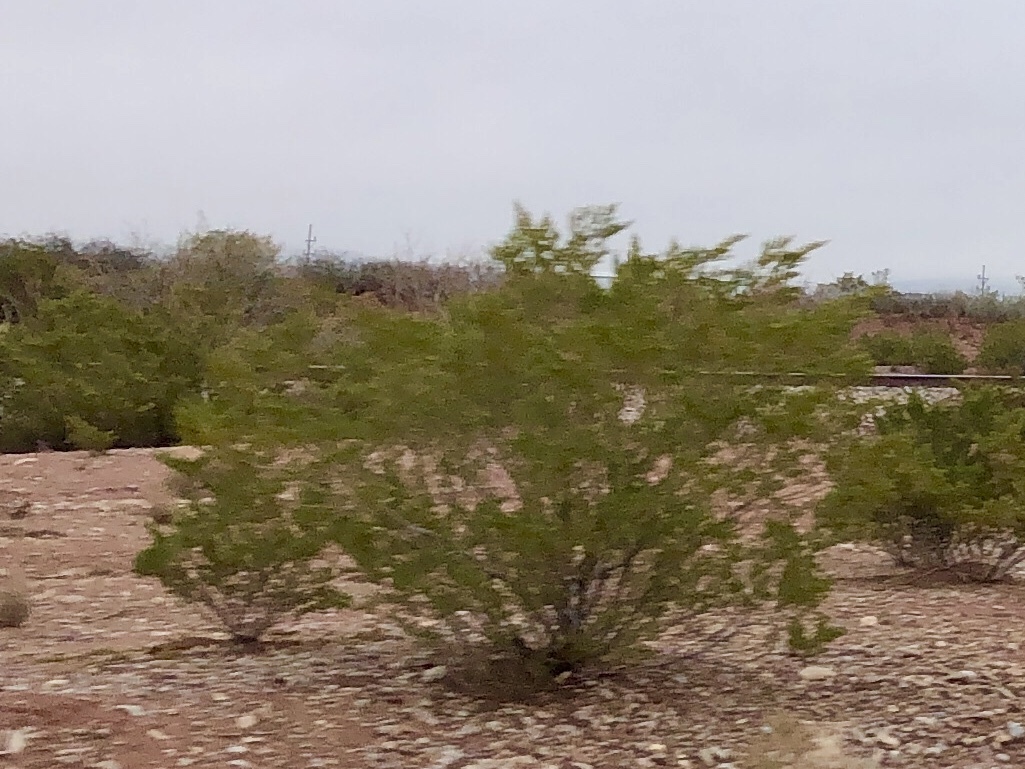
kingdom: Plantae
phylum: Tracheophyta
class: Magnoliopsida
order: Zygophyllales
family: Zygophyllaceae
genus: Larrea
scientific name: Larrea tridentata
